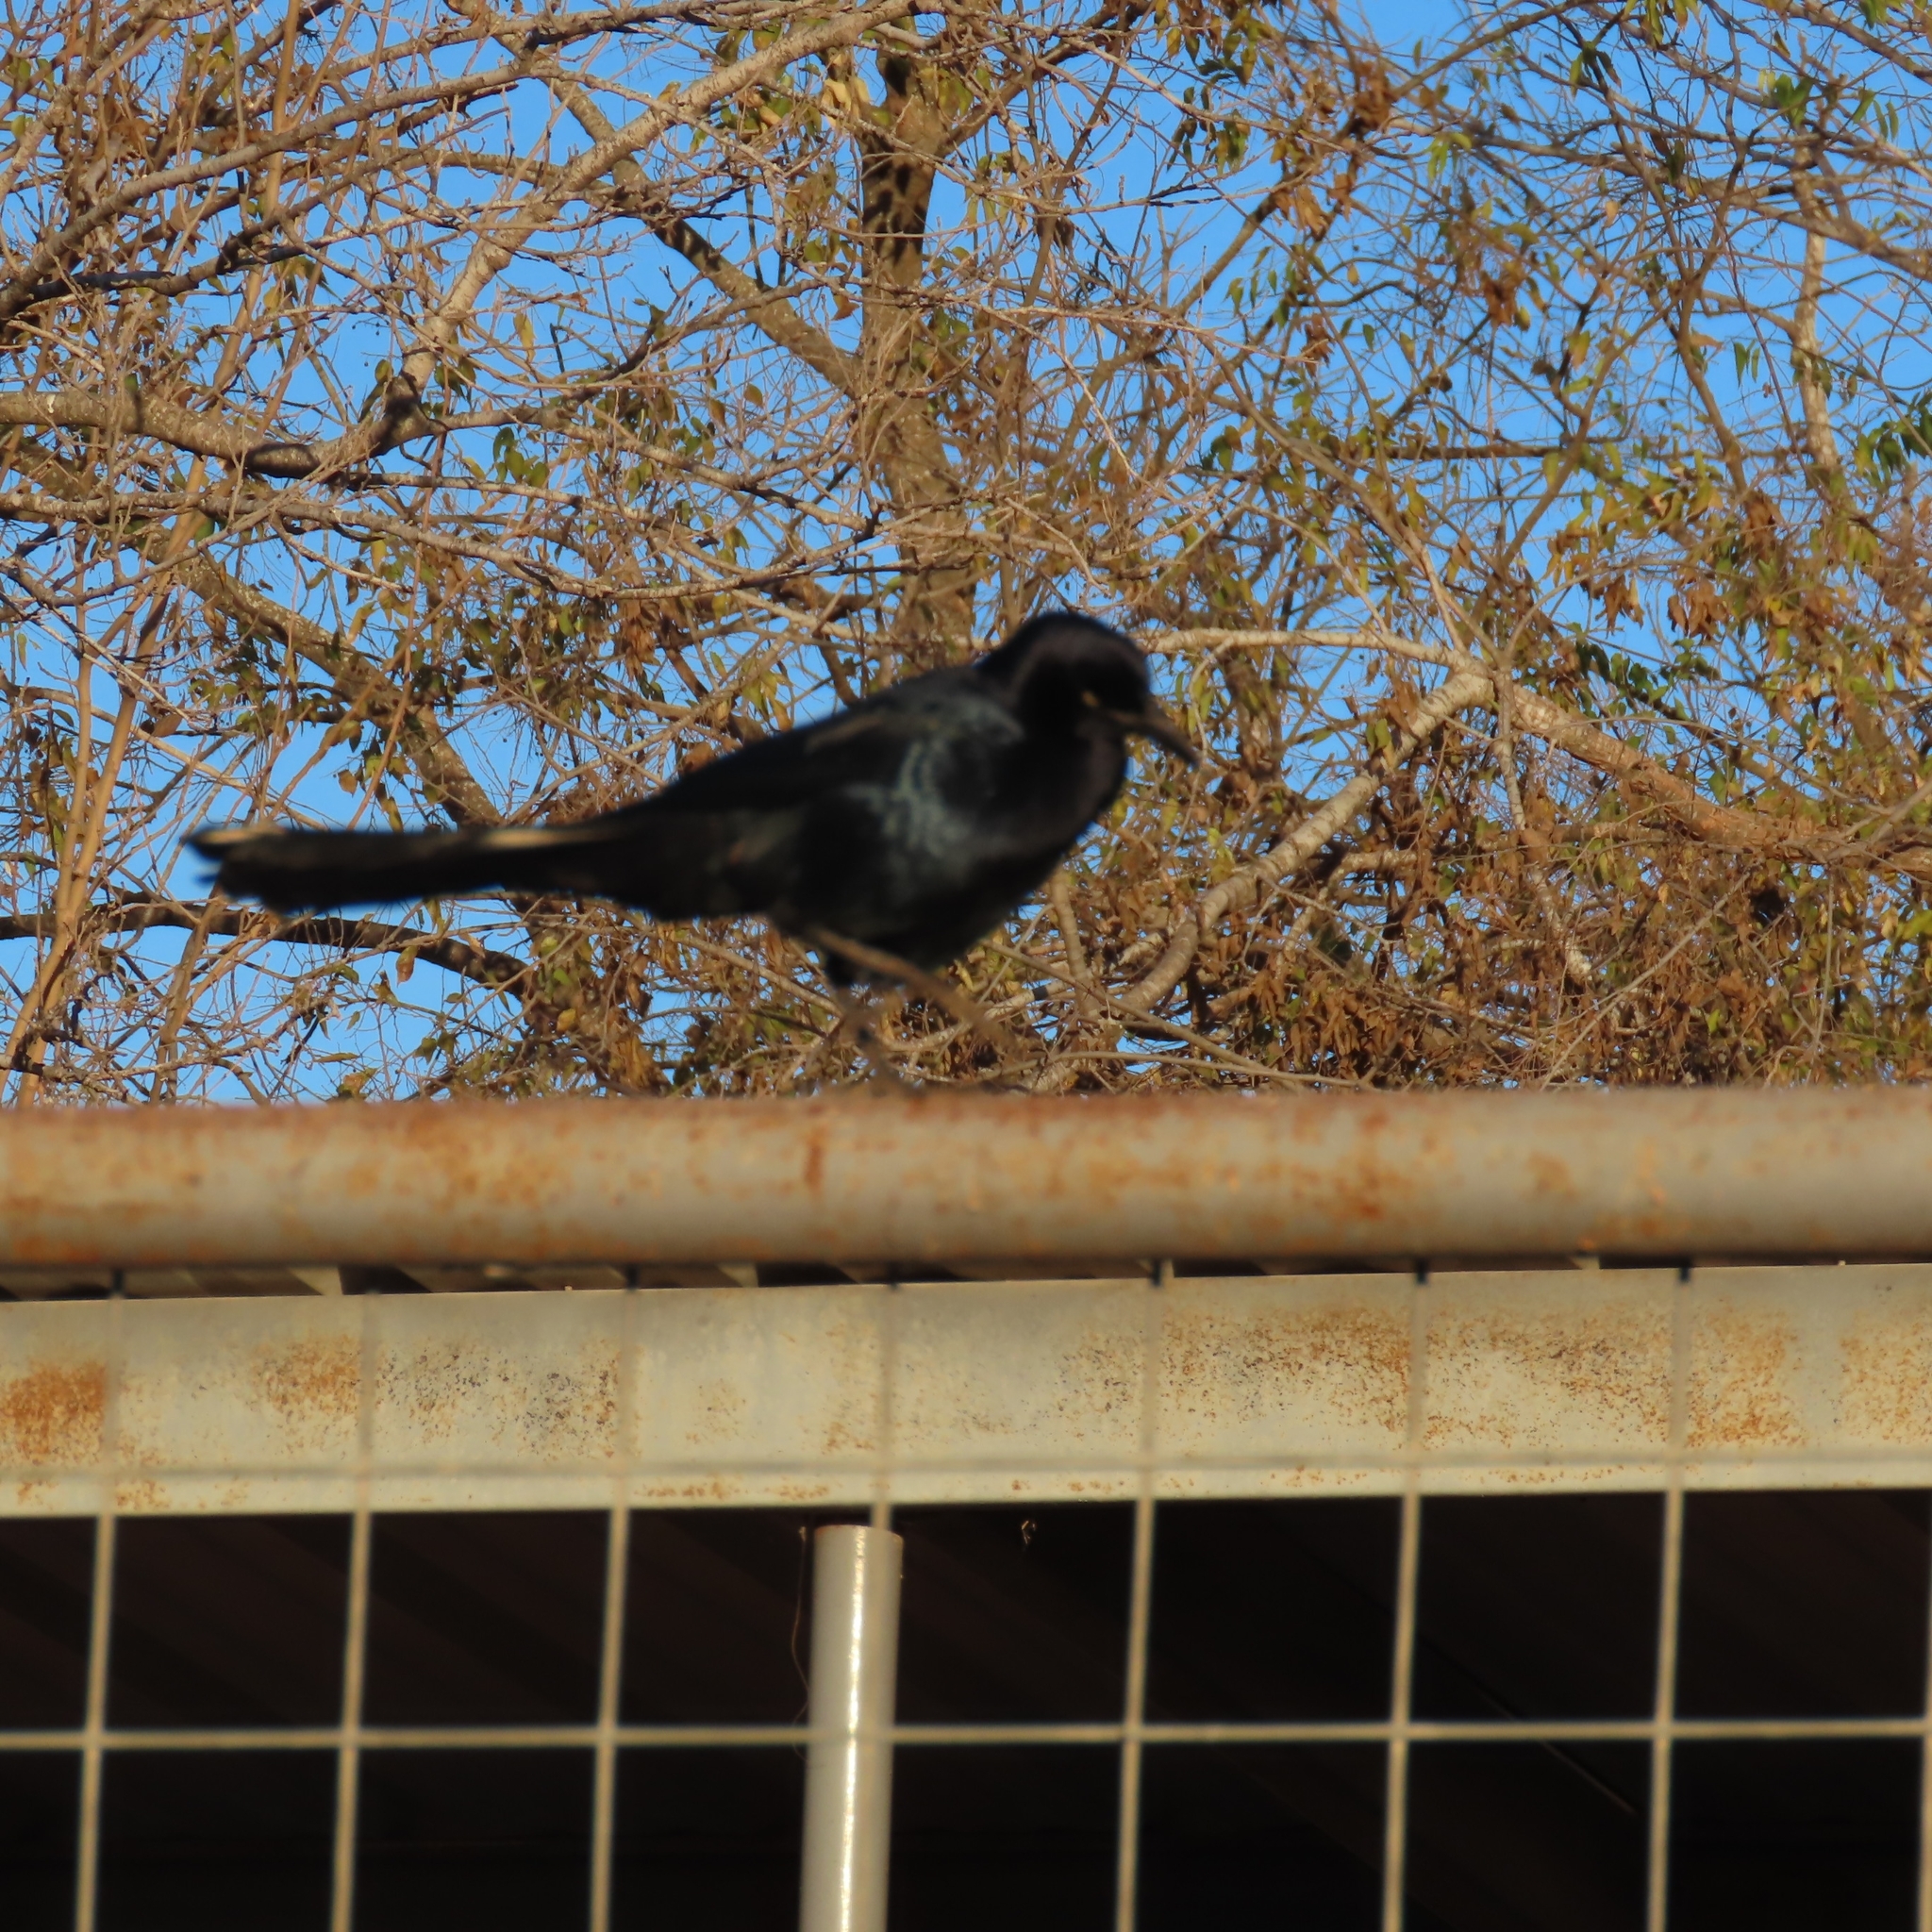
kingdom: Animalia
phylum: Chordata
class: Aves
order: Passeriformes
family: Icteridae
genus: Quiscalus
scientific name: Quiscalus mexicanus
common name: Great-tailed grackle
